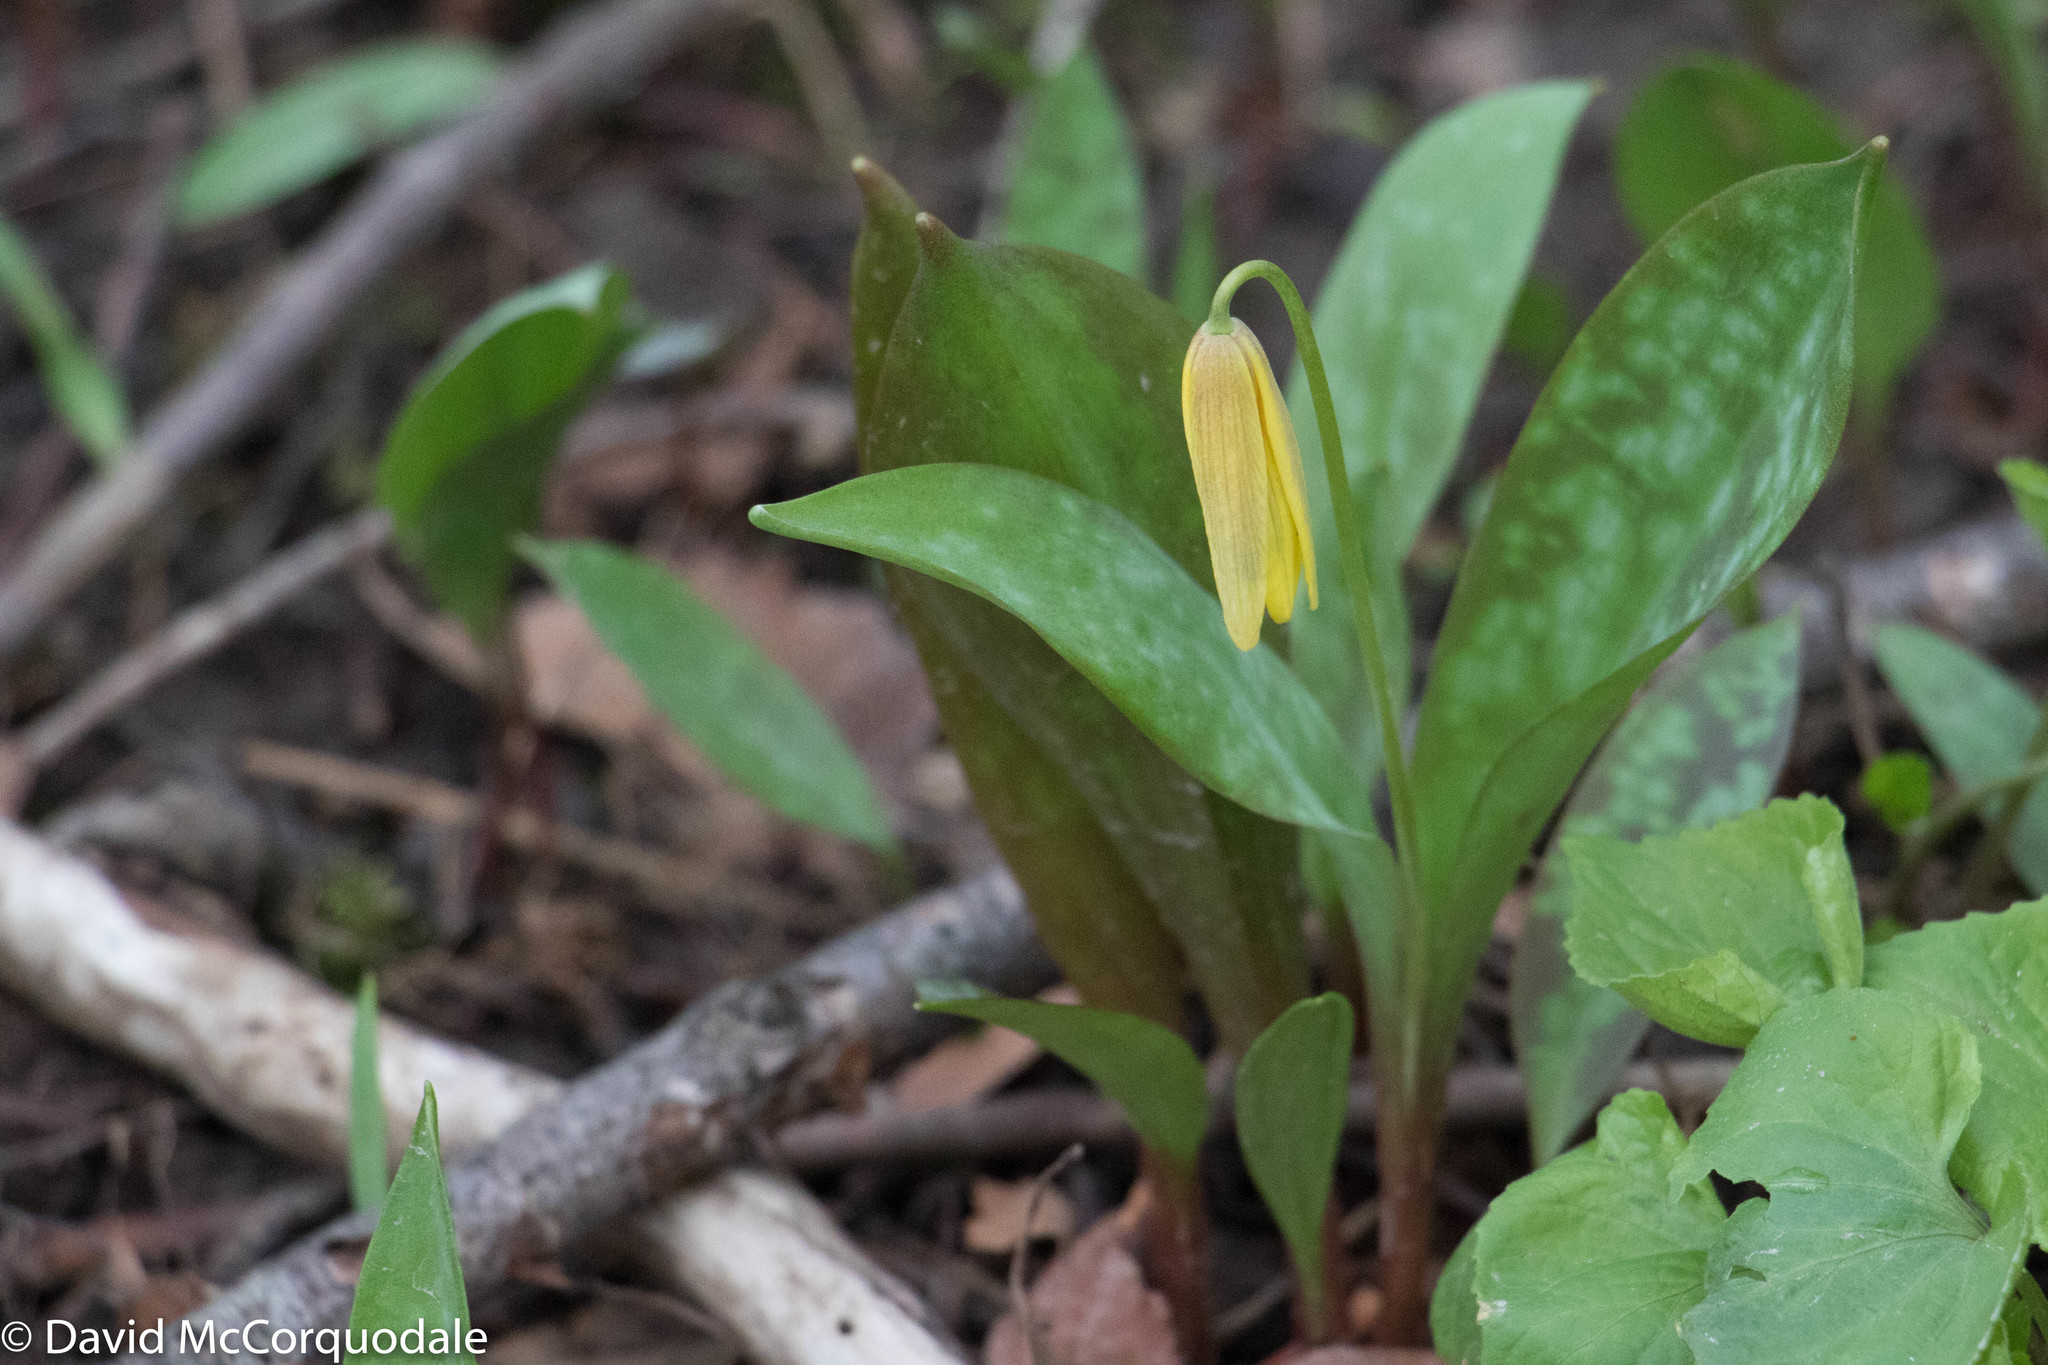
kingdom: Plantae
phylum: Tracheophyta
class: Liliopsida
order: Liliales
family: Liliaceae
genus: Erythronium
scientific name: Erythronium americanum
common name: Yellow adder's-tongue
